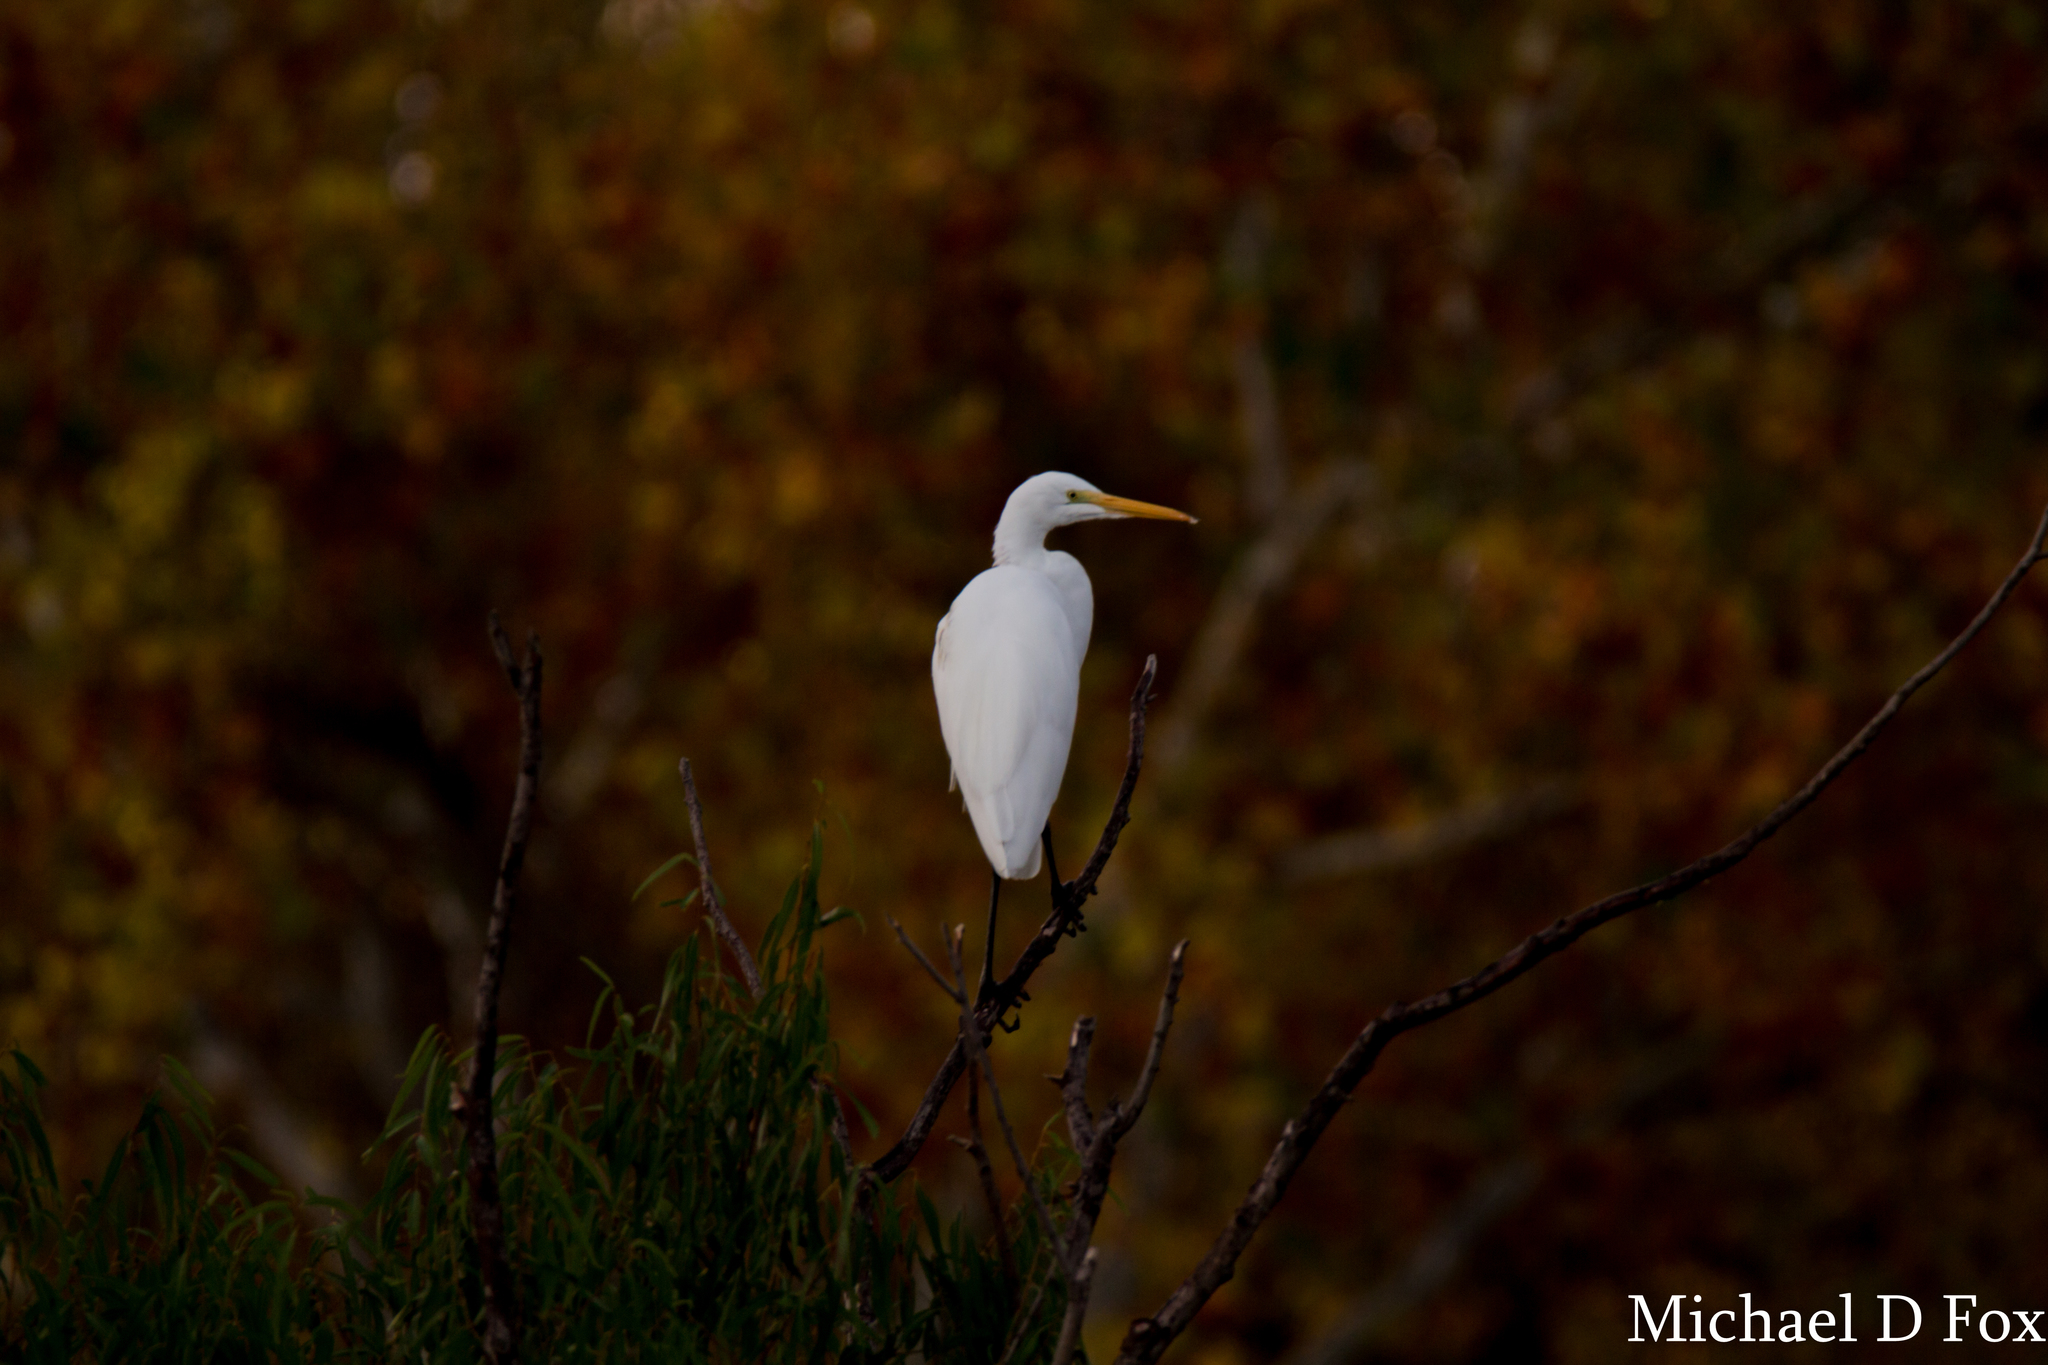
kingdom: Animalia
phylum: Chordata
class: Aves
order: Pelecaniformes
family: Ardeidae
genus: Ardea
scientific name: Ardea alba
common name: Great egret
